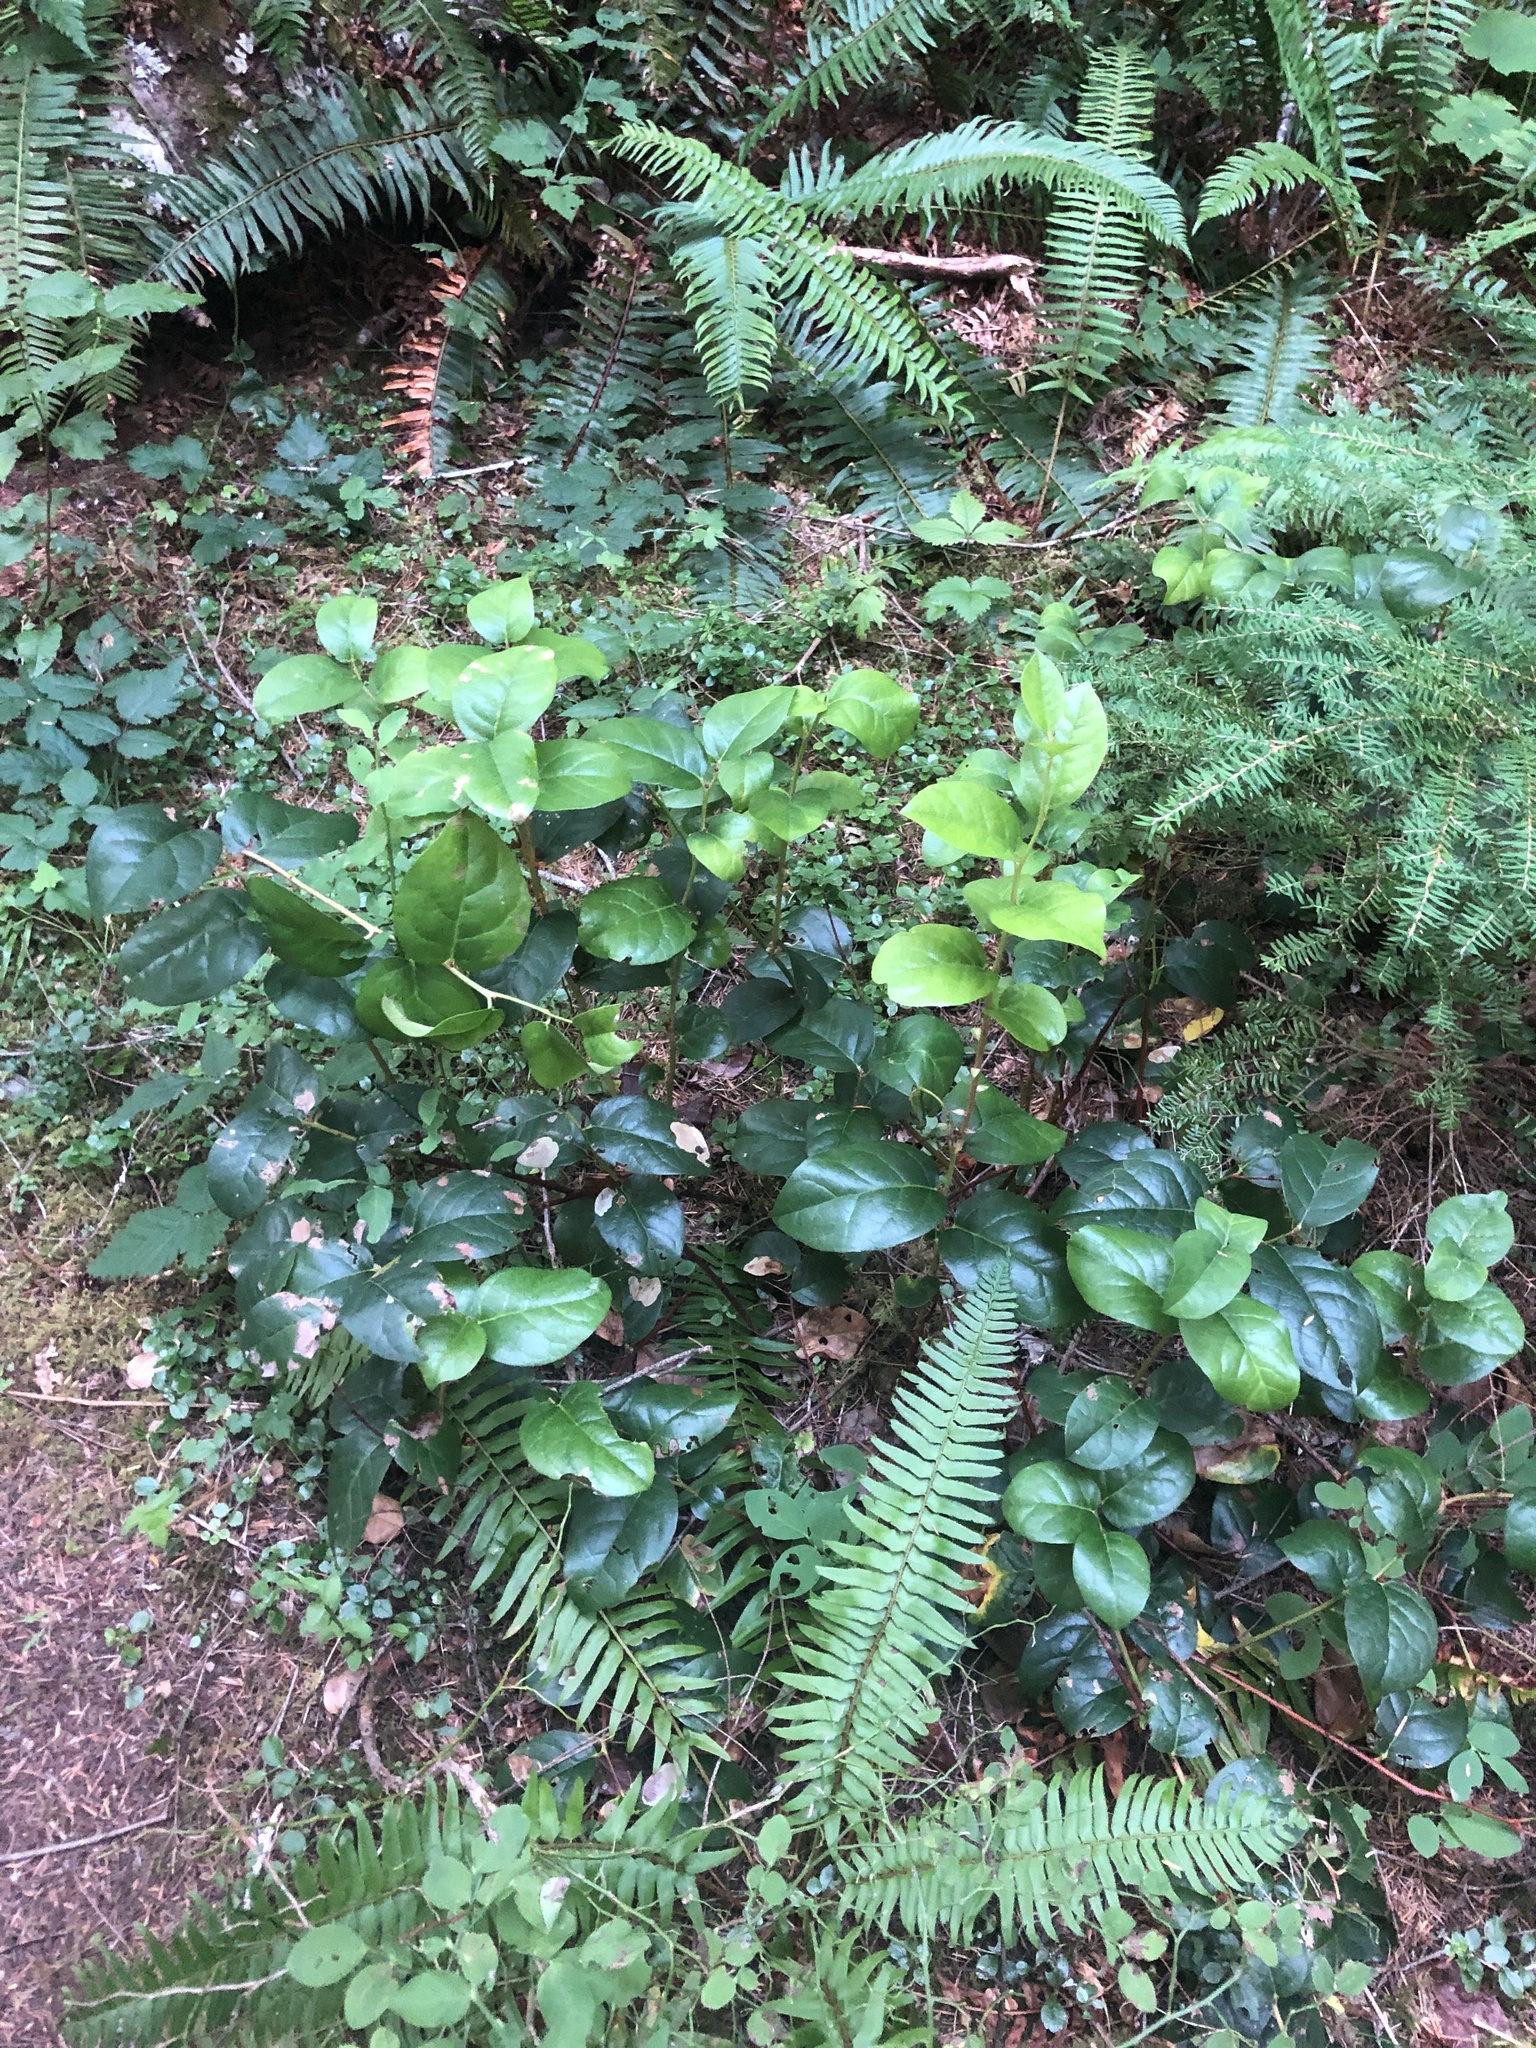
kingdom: Plantae
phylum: Tracheophyta
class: Magnoliopsida
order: Ericales
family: Ericaceae
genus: Gaultheria
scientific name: Gaultheria shallon
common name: Shallon
